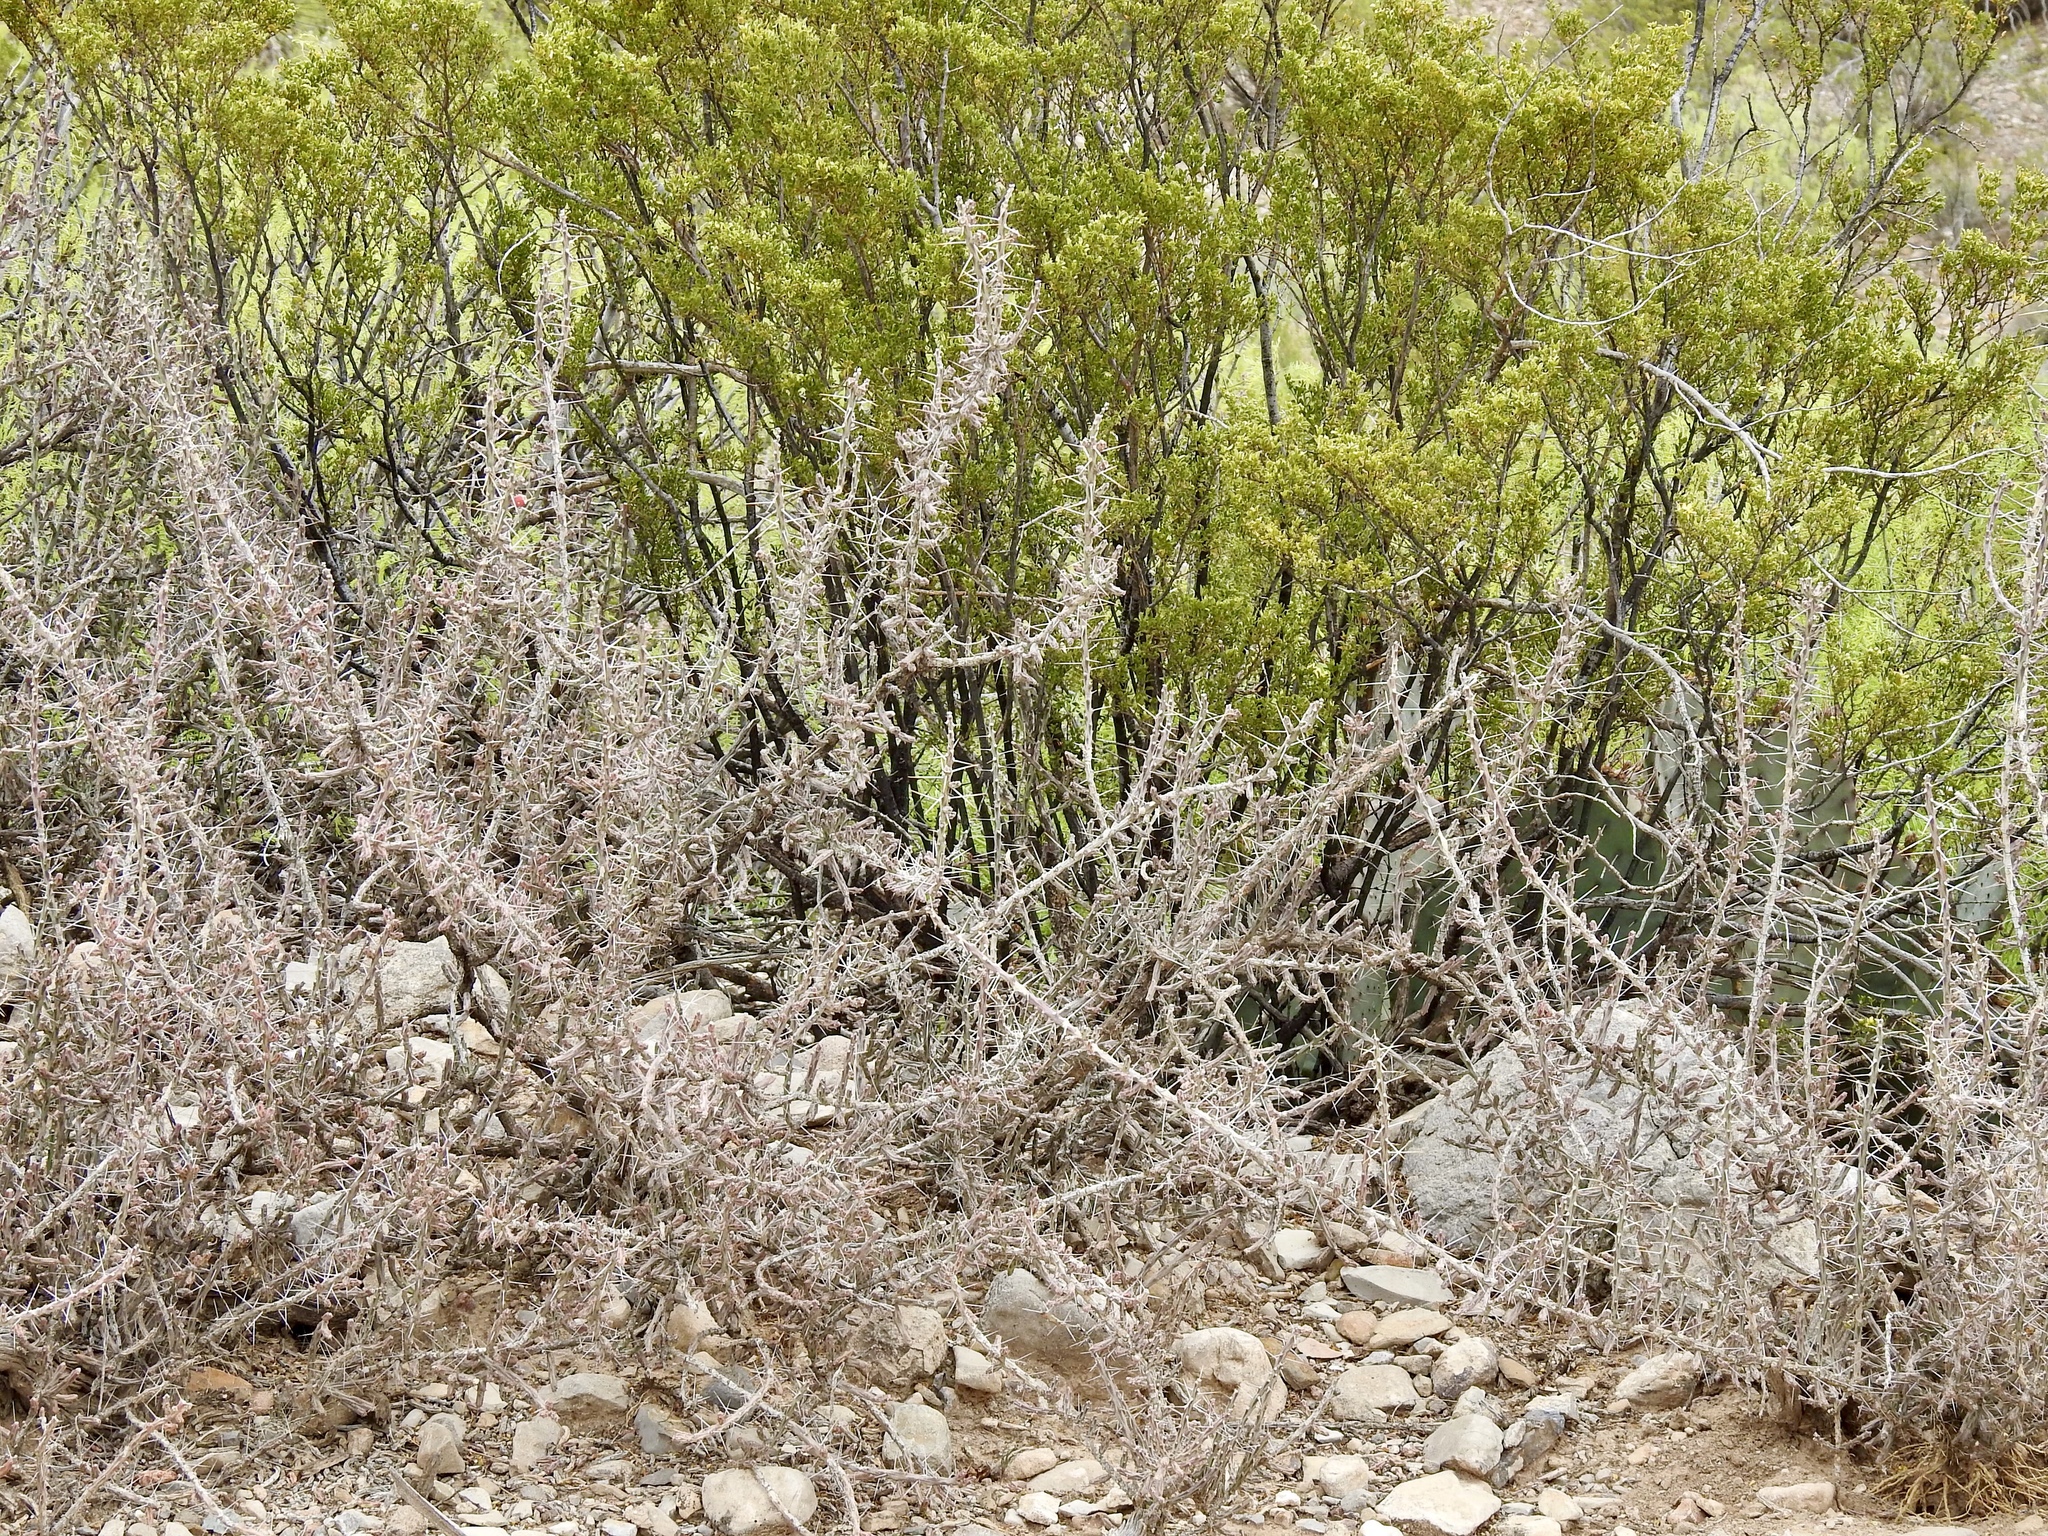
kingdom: Plantae
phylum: Tracheophyta
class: Magnoliopsida
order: Caryophyllales
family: Cactaceae
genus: Cylindropuntia
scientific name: Cylindropuntia leptocaulis
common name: Christmas cactus
